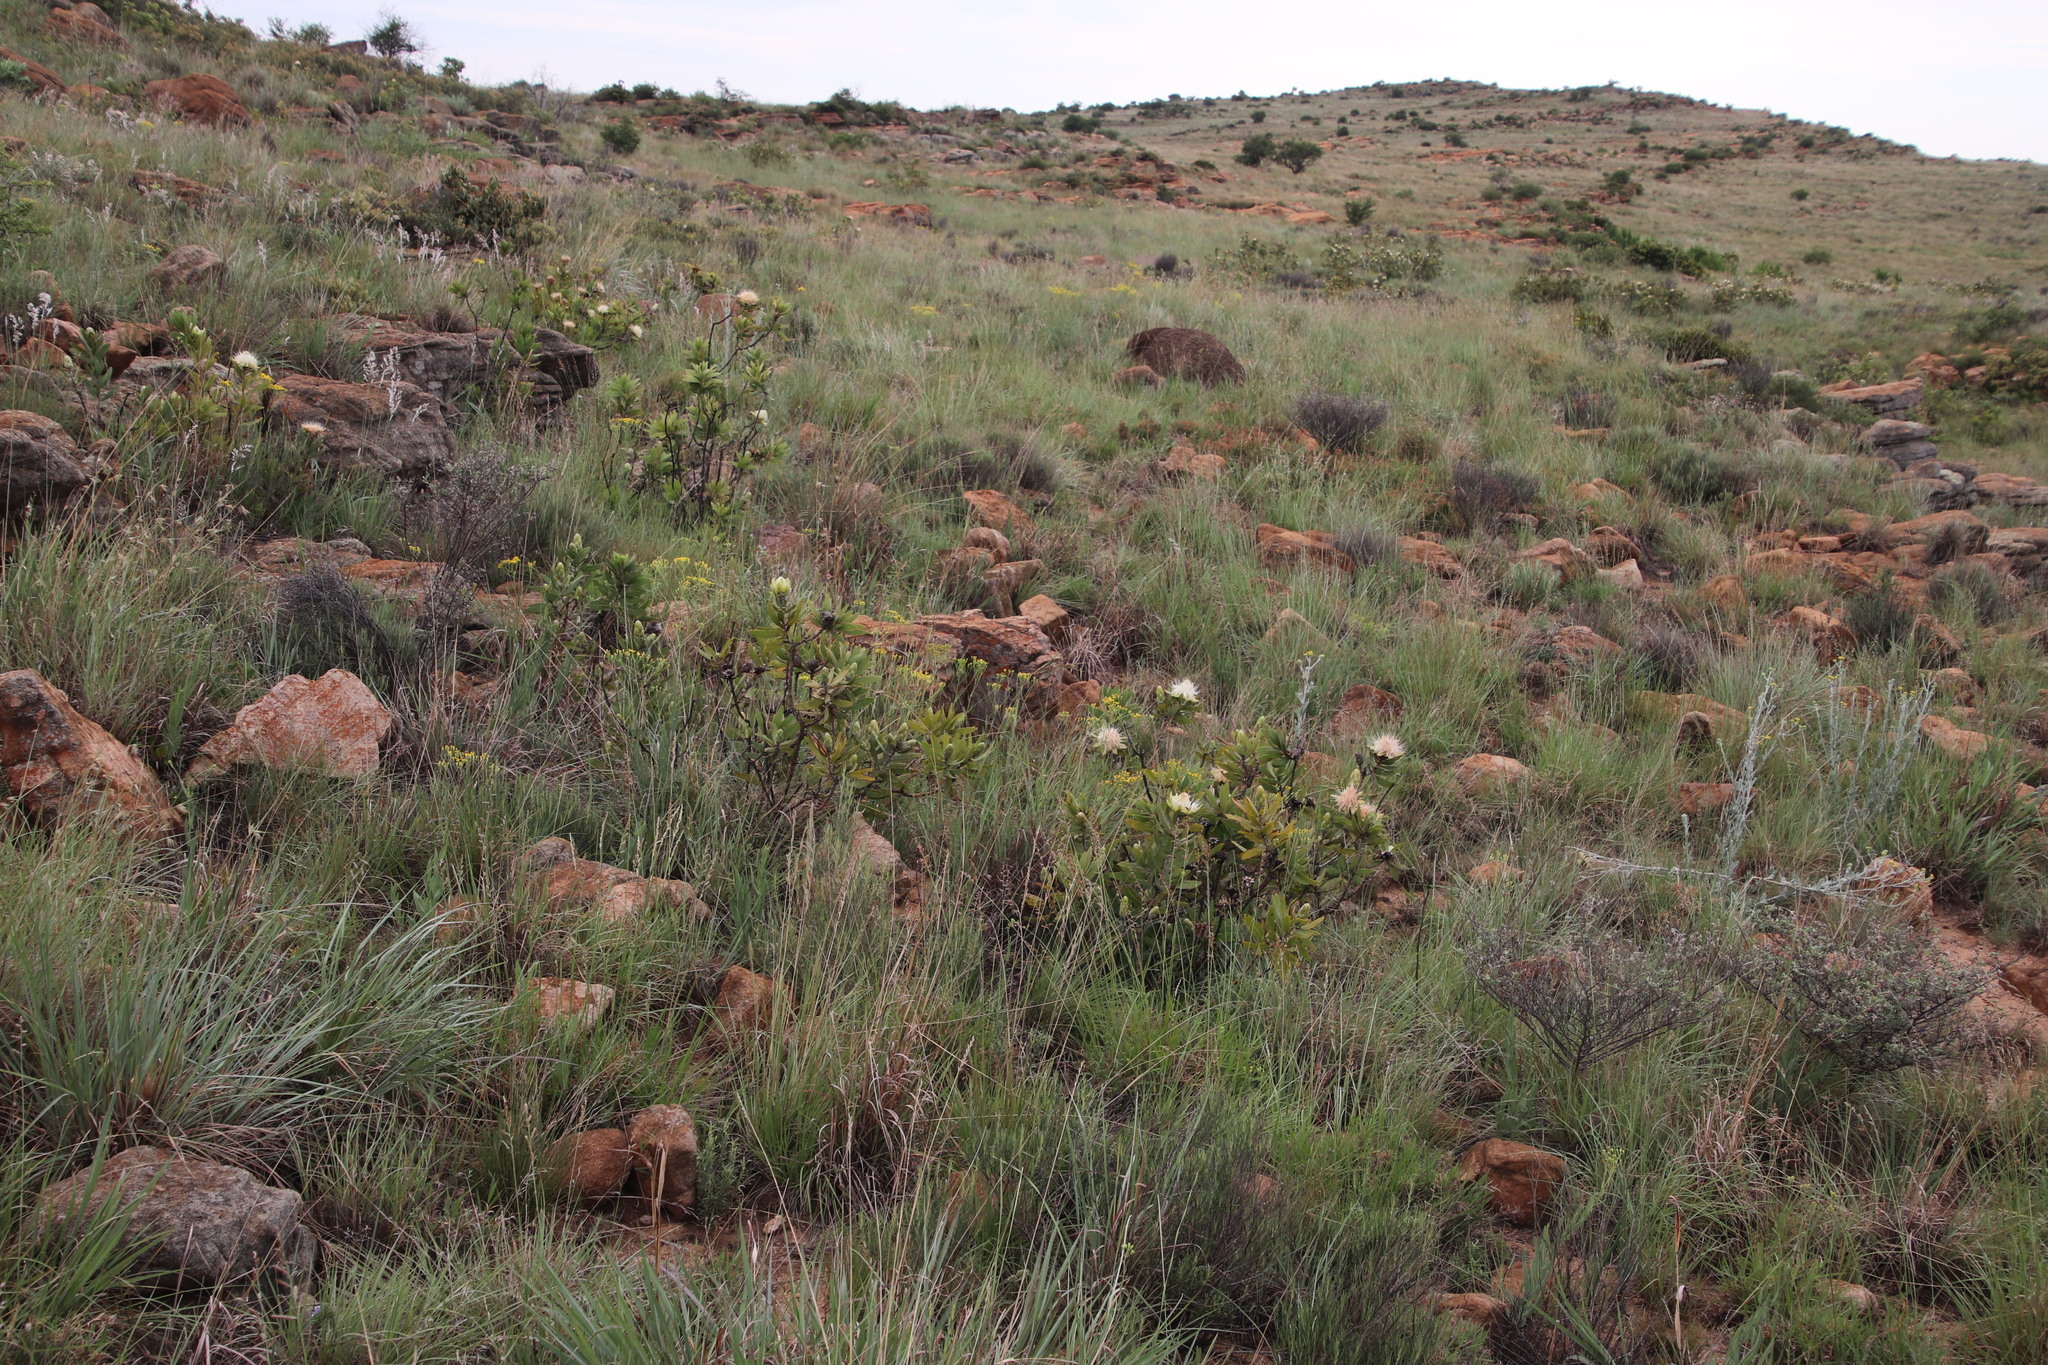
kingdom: Plantae
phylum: Tracheophyta
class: Magnoliopsida
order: Proteales
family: Proteaceae
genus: Protea
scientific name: Protea welwitschii
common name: Cluster-head protea
